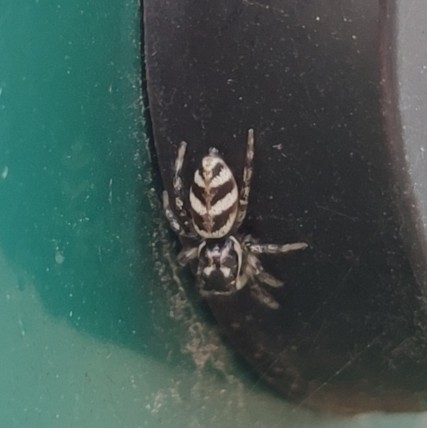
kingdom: Animalia
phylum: Arthropoda
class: Arachnida
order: Araneae
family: Salticidae
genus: Salticus
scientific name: Salticus scenicus
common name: Zebra jumper
